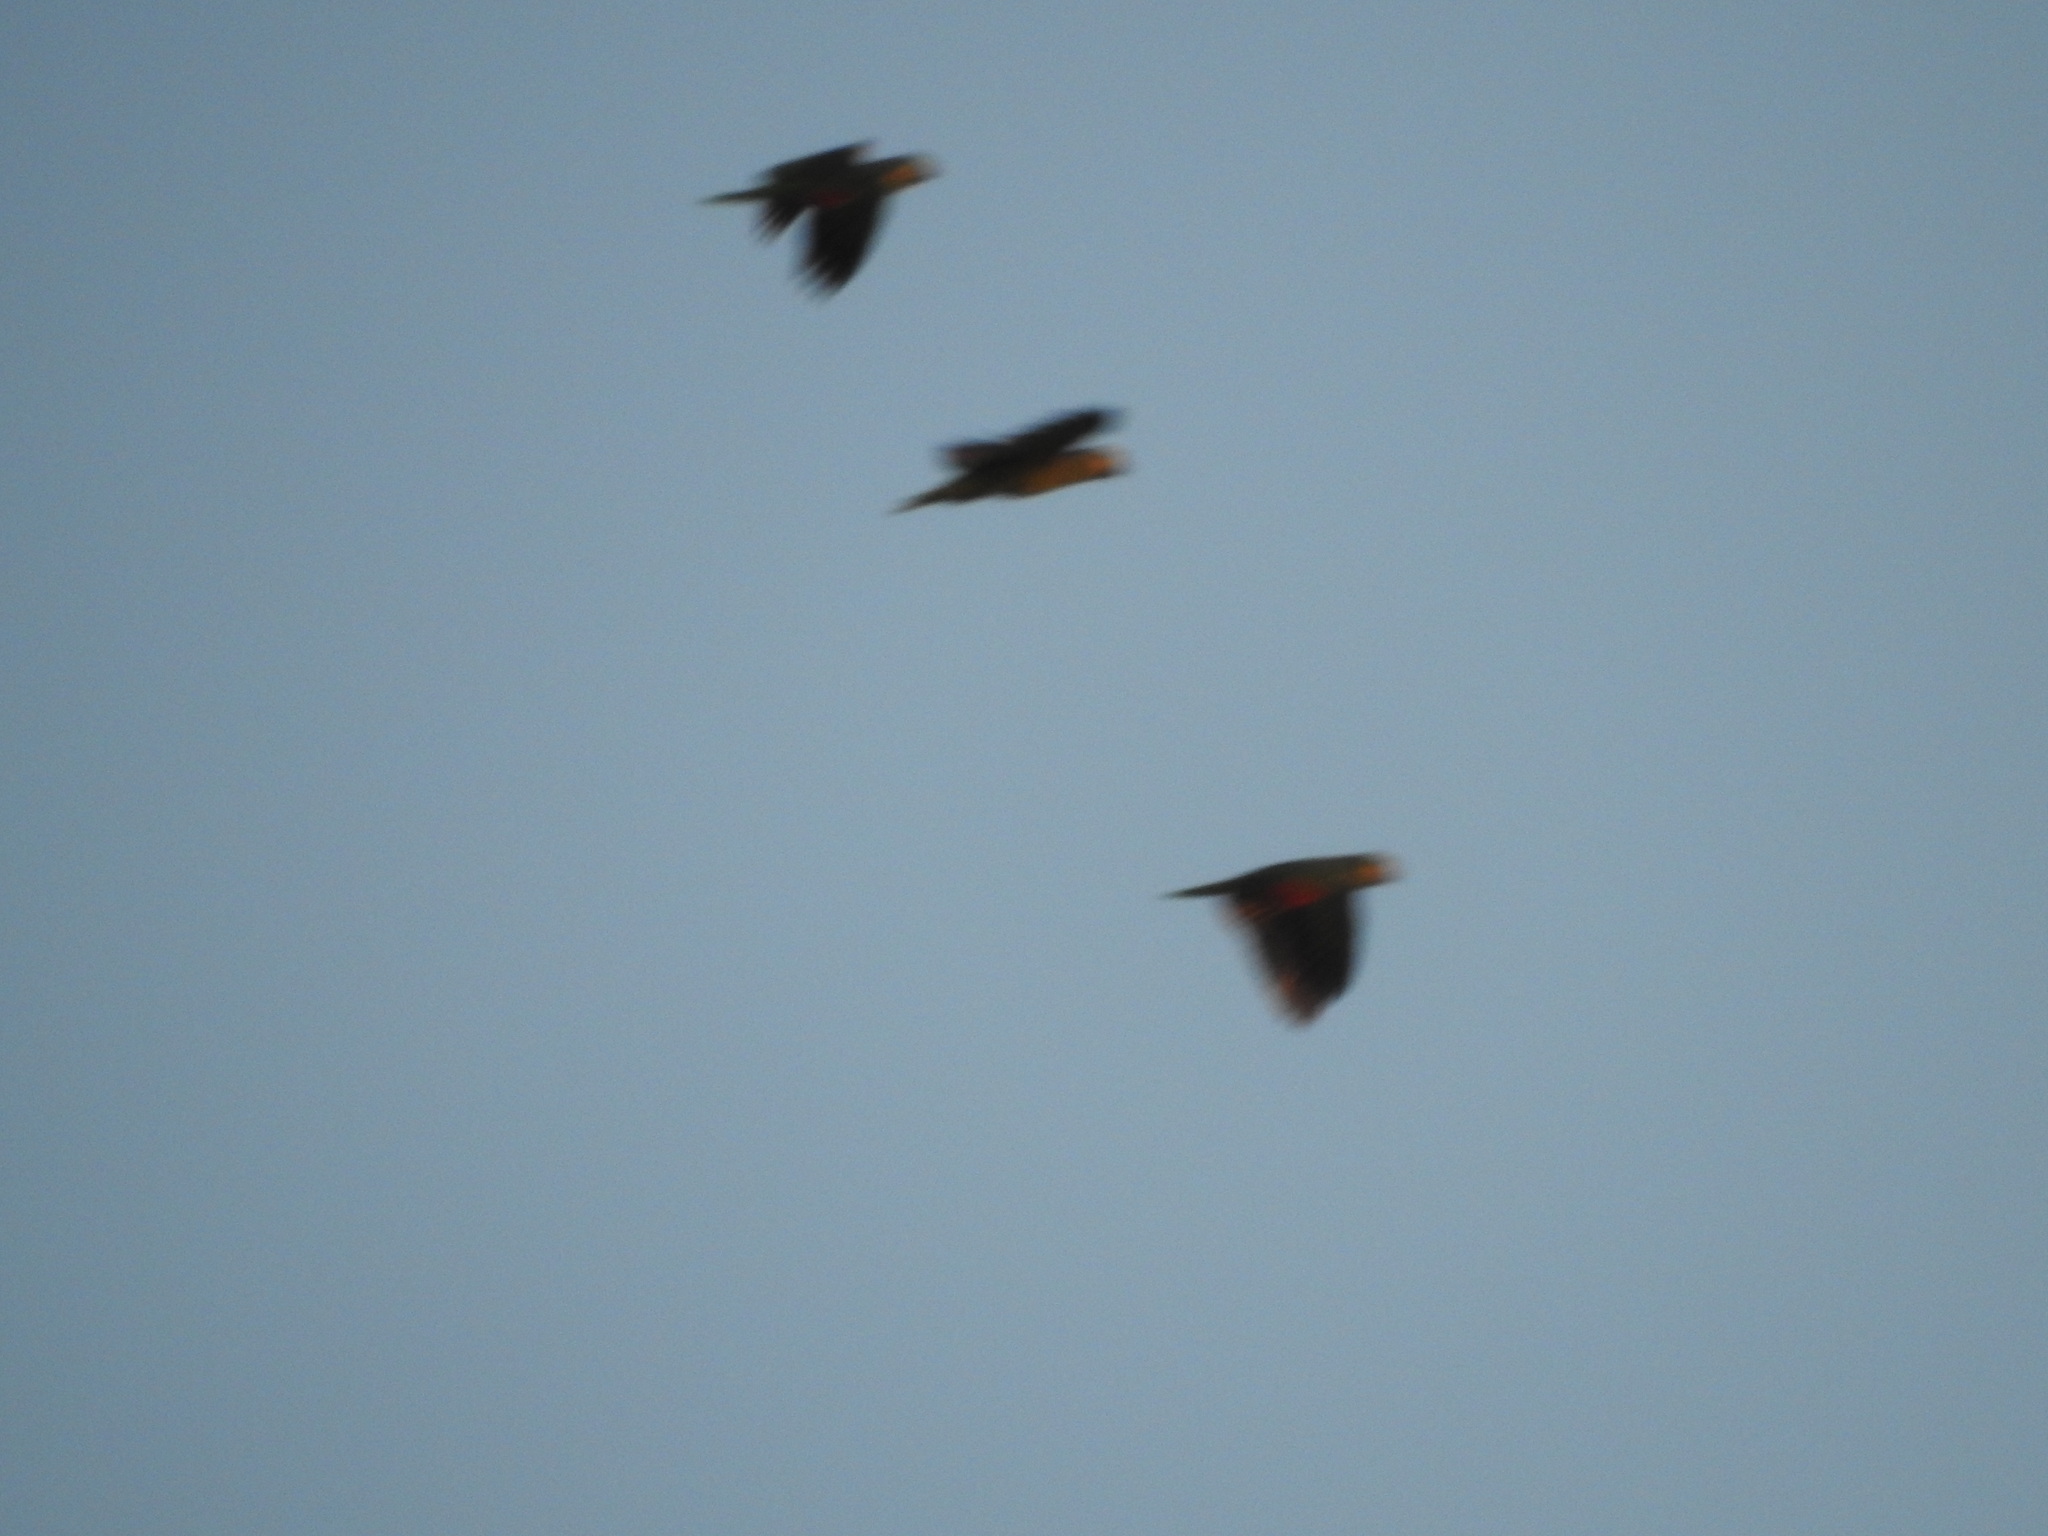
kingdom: Animalia
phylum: Chordata
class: Aves
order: Psittaciformes
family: Psittacidae
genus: Amazona
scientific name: Amazona aestiva
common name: Turquoise-fronted amazon
